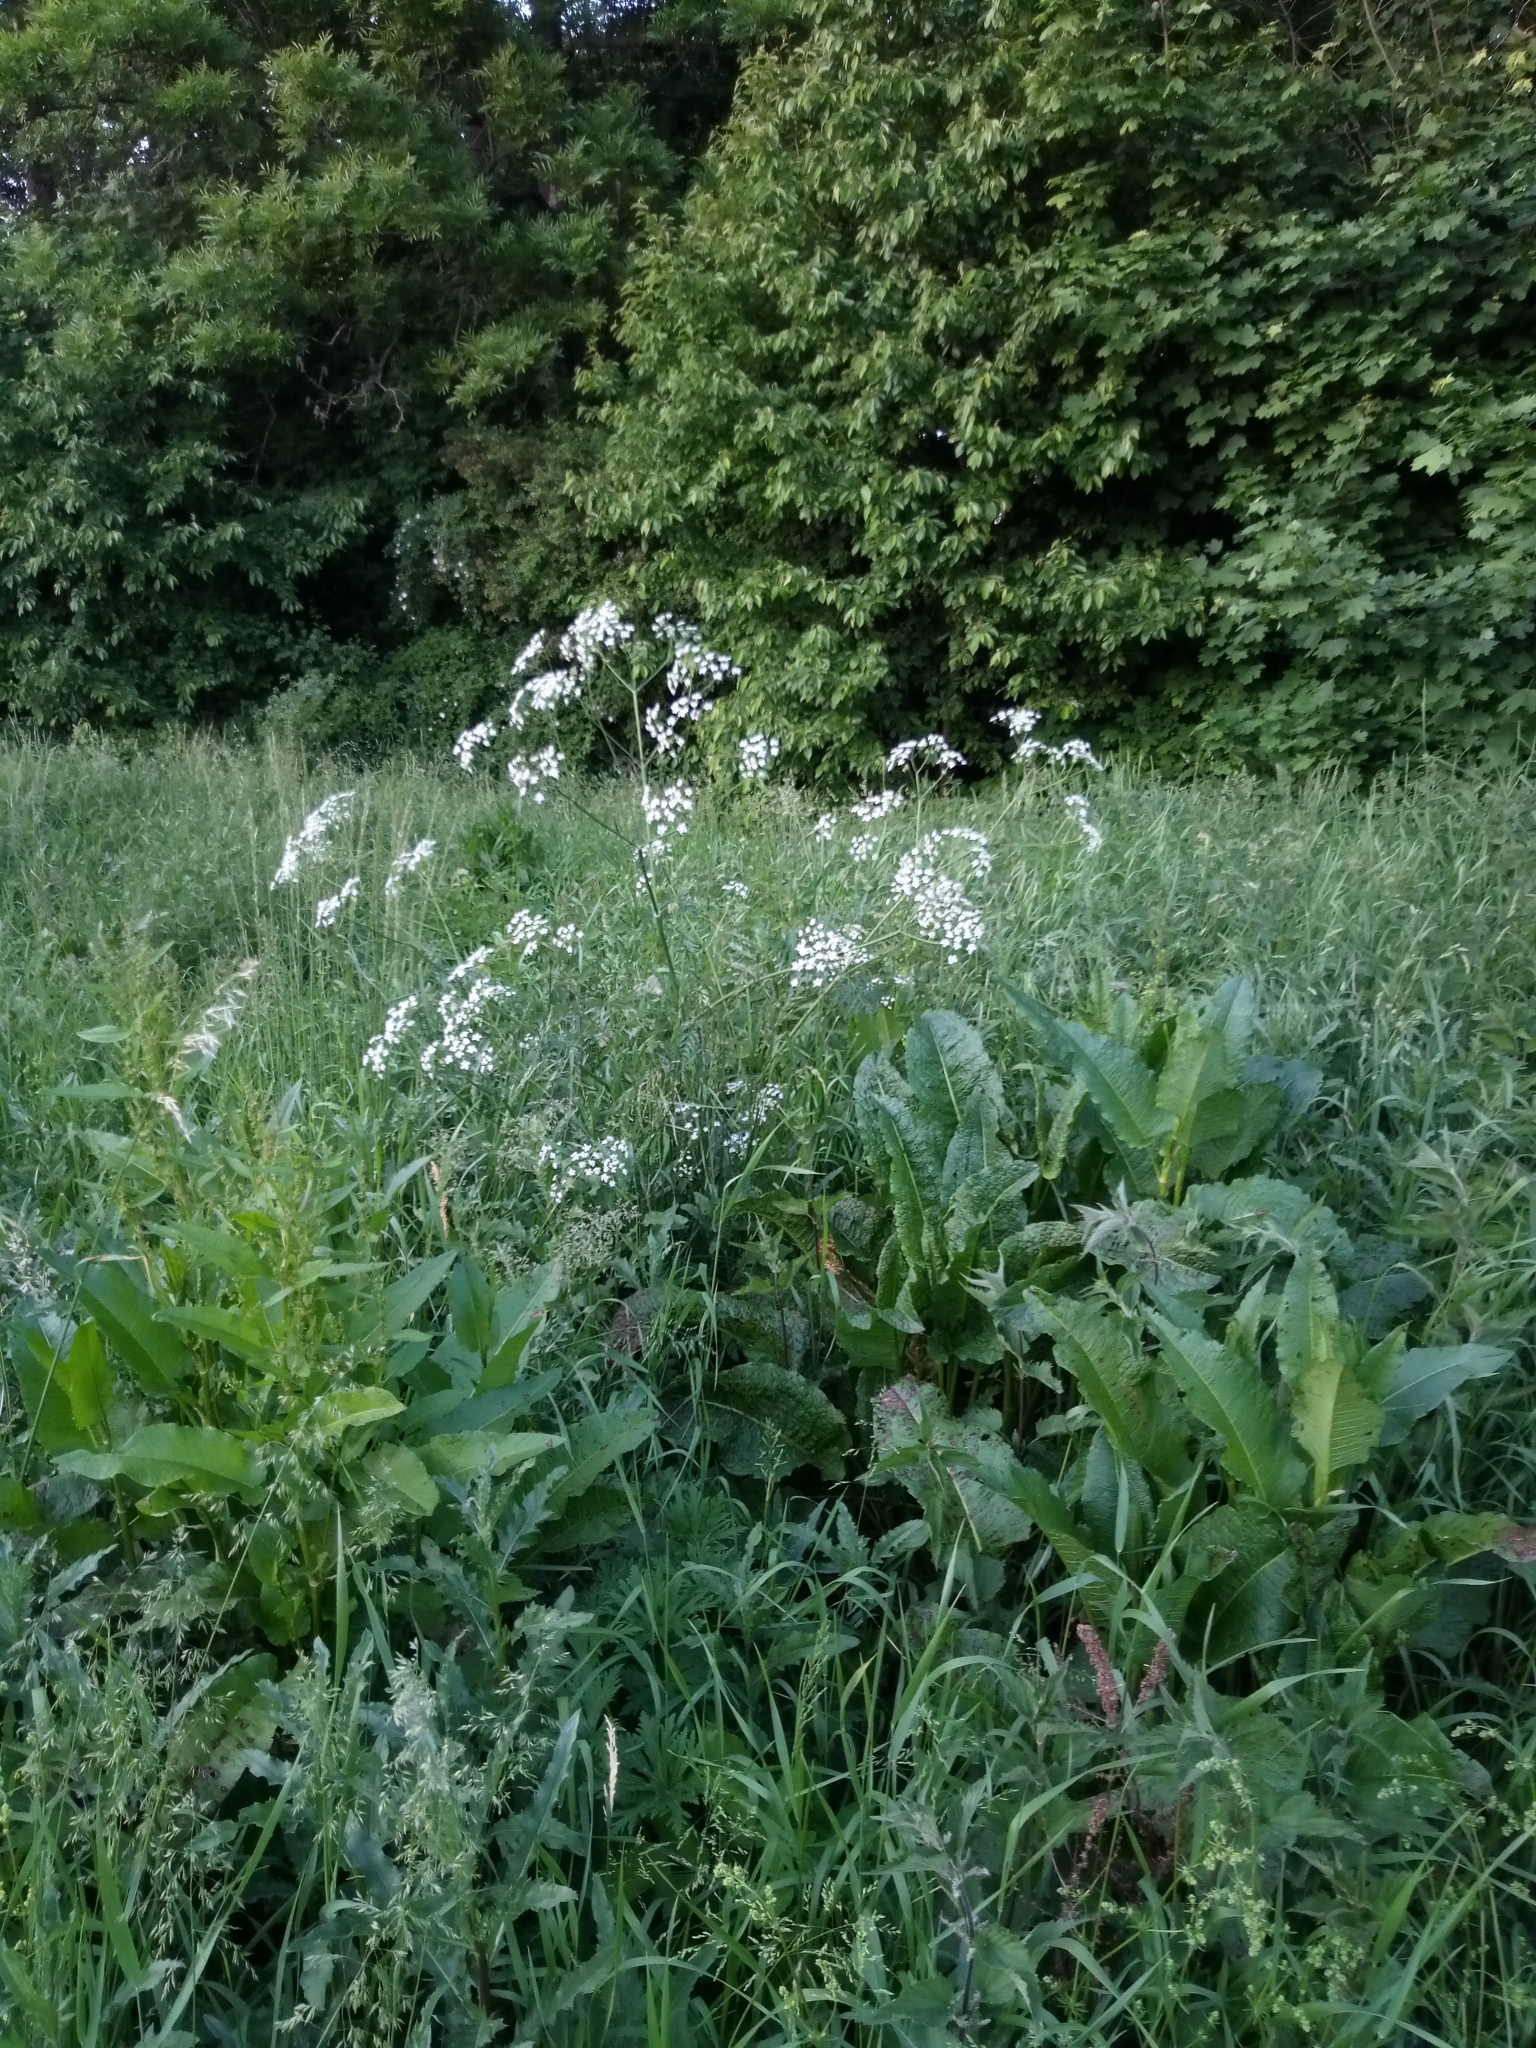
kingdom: Plantae
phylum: Tracheophyta
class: Magnoliopsida
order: Brassicales
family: Brassicaceae
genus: Armoracia
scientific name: Armoracia rusticana
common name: Horseradish
